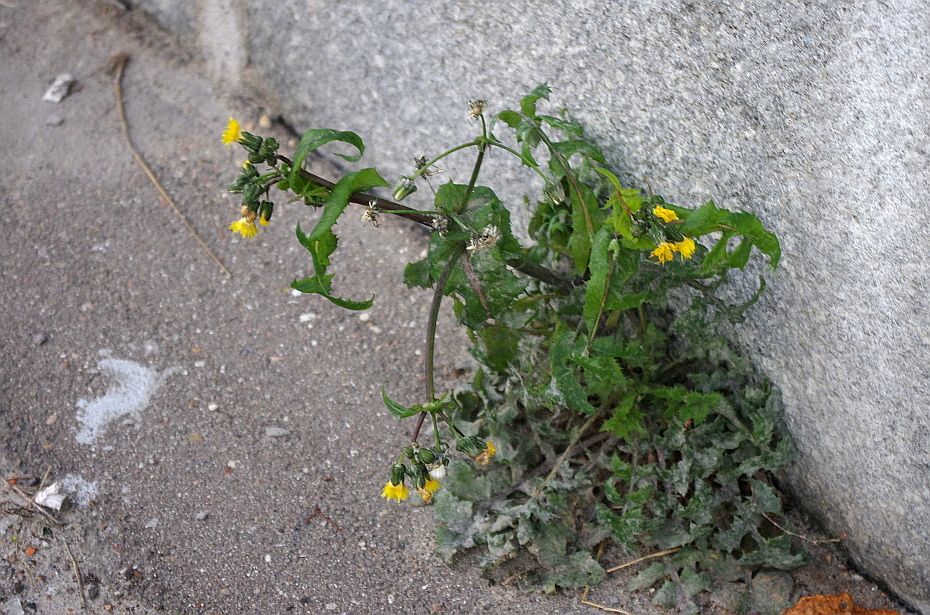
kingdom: Plantae
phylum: Tracheophyta
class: Magnoliopsida
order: Asterales
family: Asteraceae
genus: Sonchus
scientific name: Sonchus oleraceus
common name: Common sowthistle
